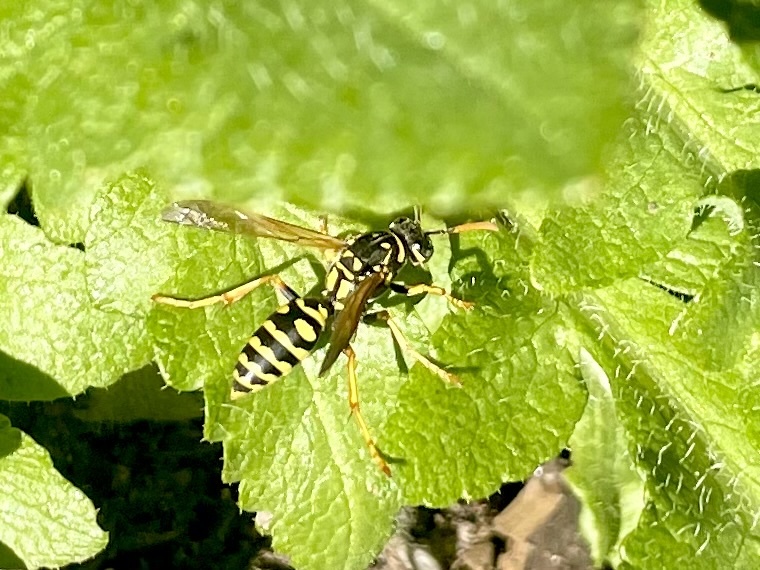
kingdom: Animalia
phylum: Arthropoda
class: Insecta
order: Hymenoptera
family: Eumenidae
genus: Polistes
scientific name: Polistes dominula
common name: Paper wasp
